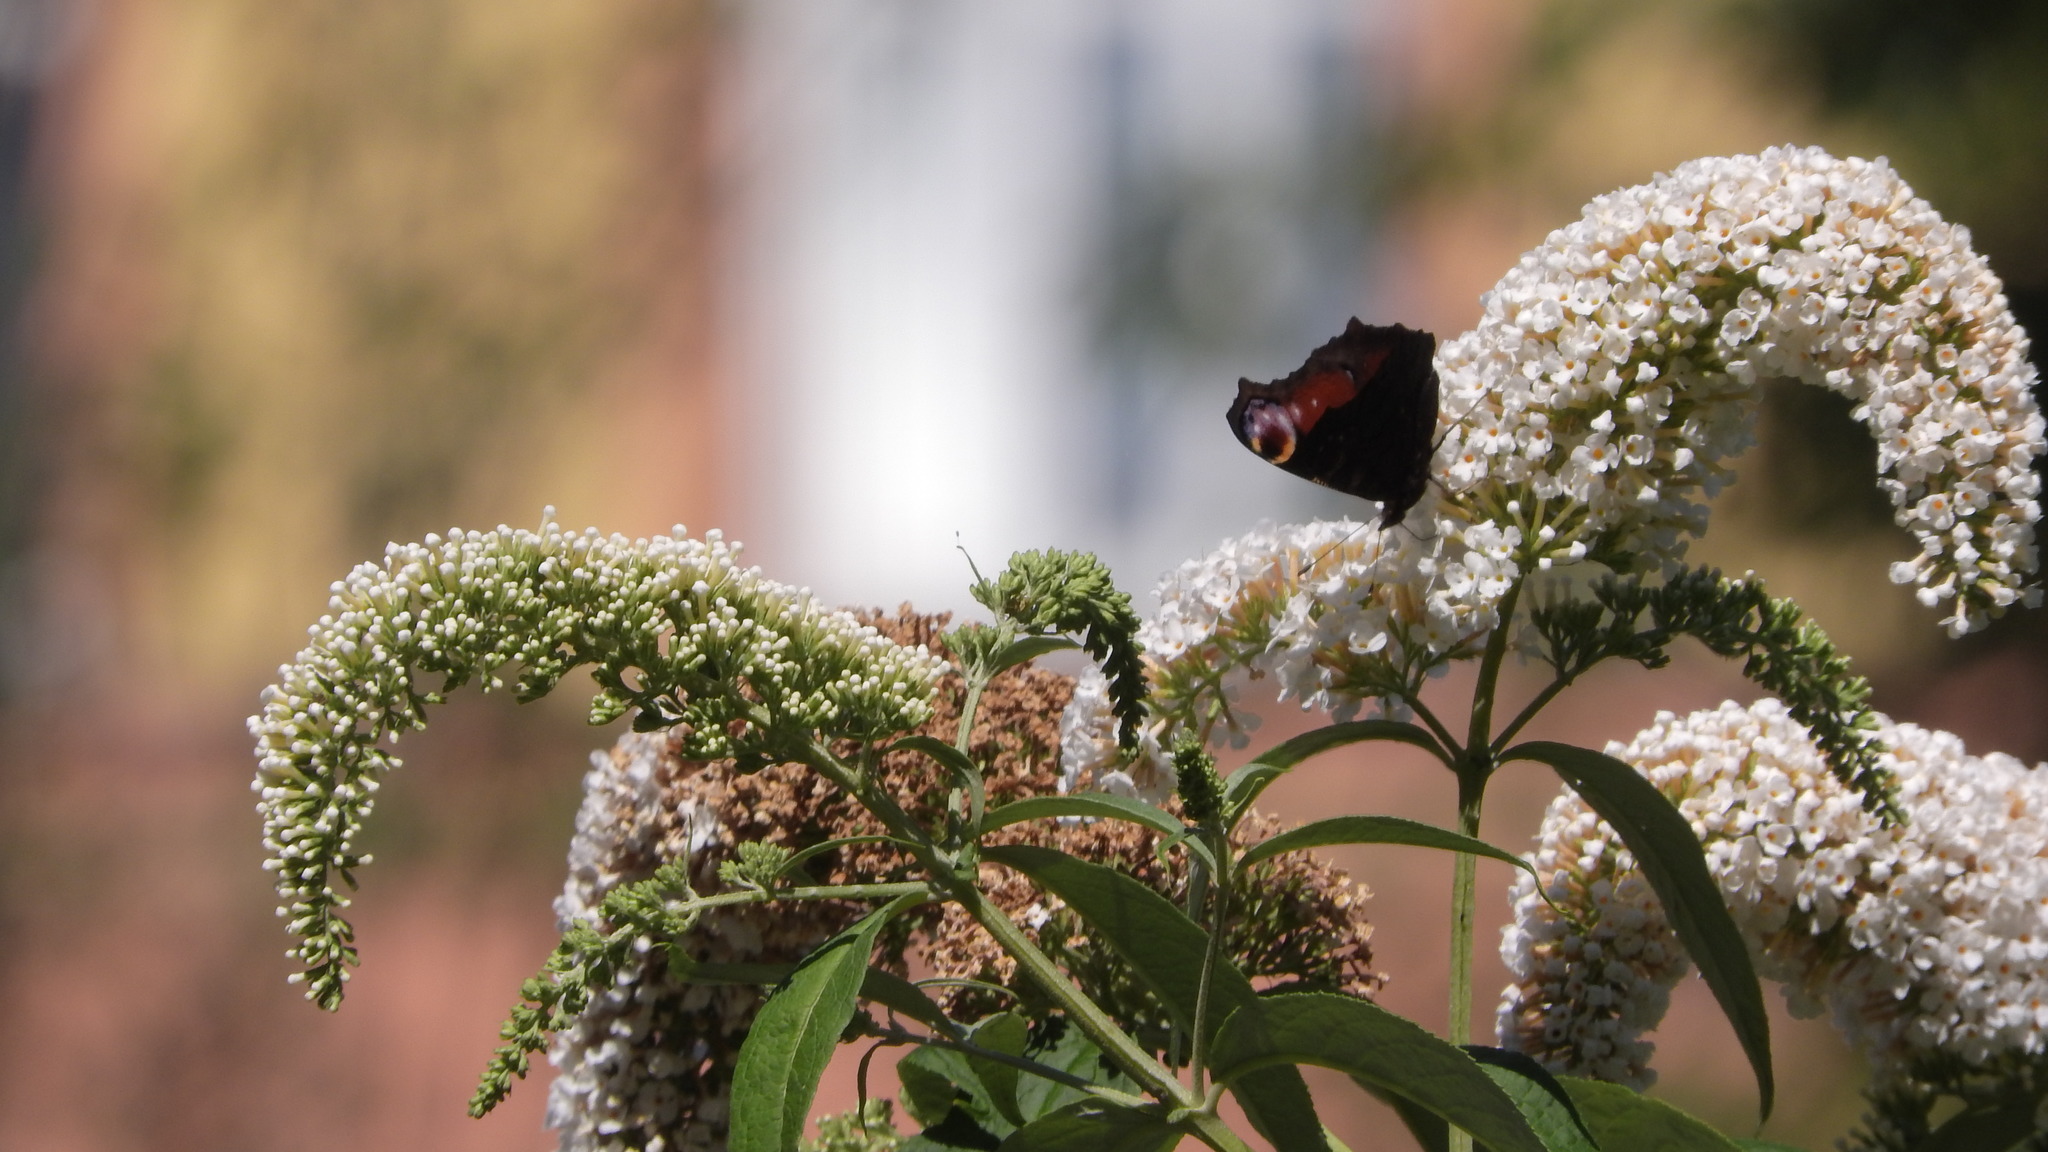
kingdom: Animalia
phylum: Arthropoda
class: Insecta
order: Lepidoptera
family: Nymphalidae
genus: Aglais
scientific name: Aglais io
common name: Peacock
